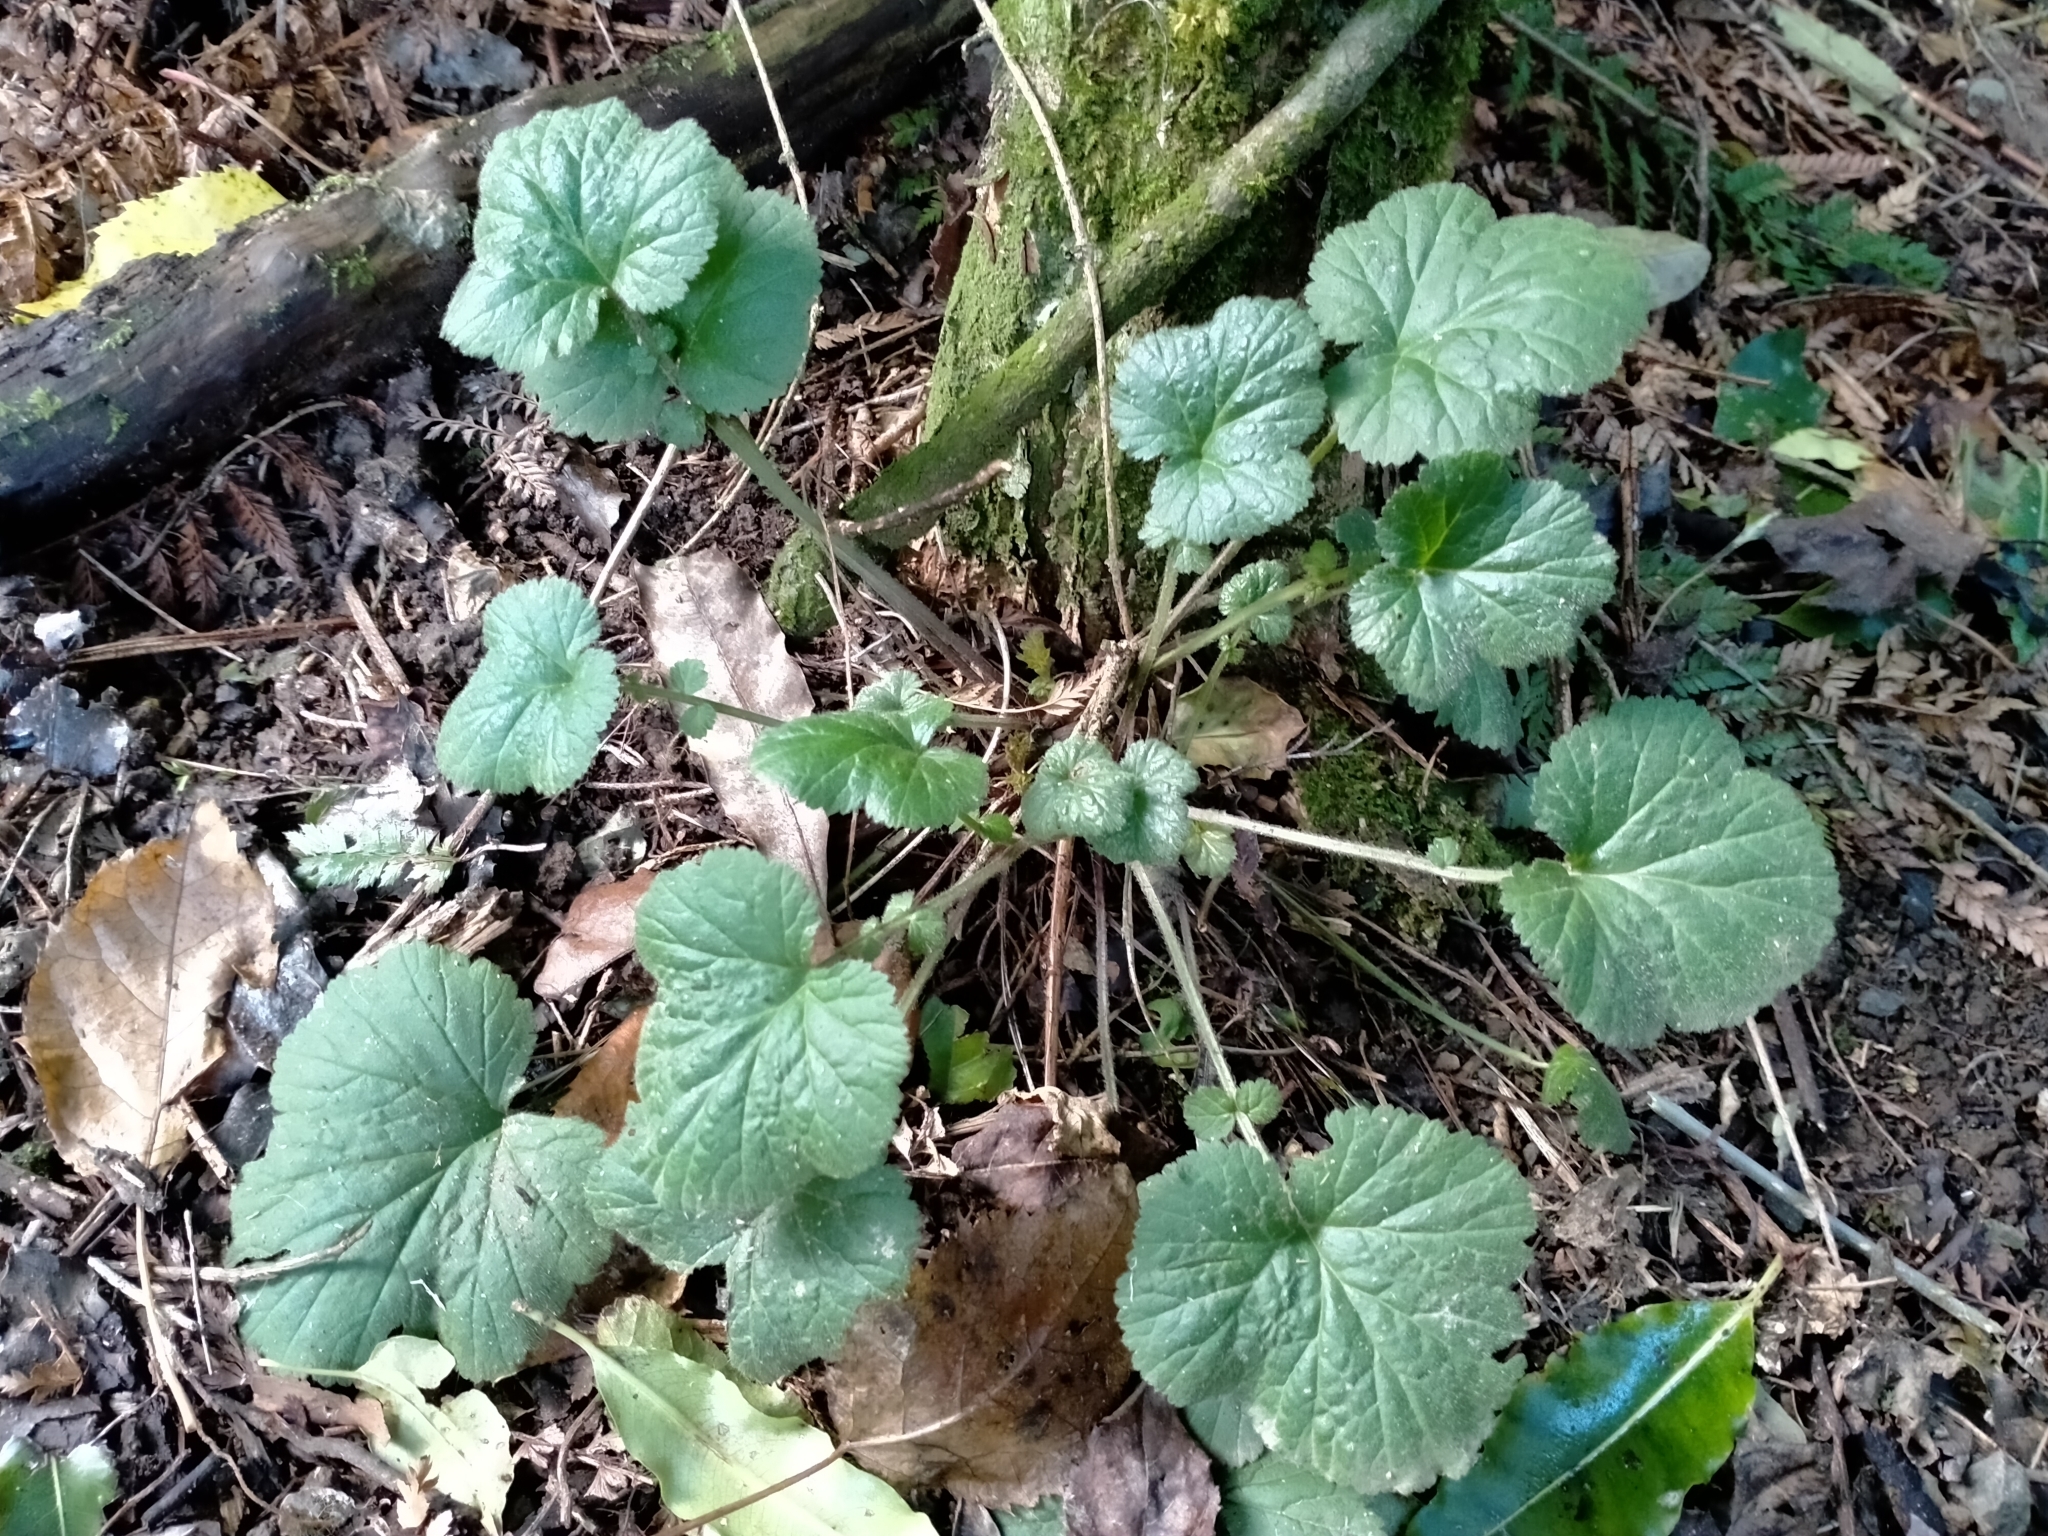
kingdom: Plantae
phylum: Tracheophyta
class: Magnoliopsida
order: Rosales
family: Rosaceae
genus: Geum
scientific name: Geum urbanum
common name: Wood avens
